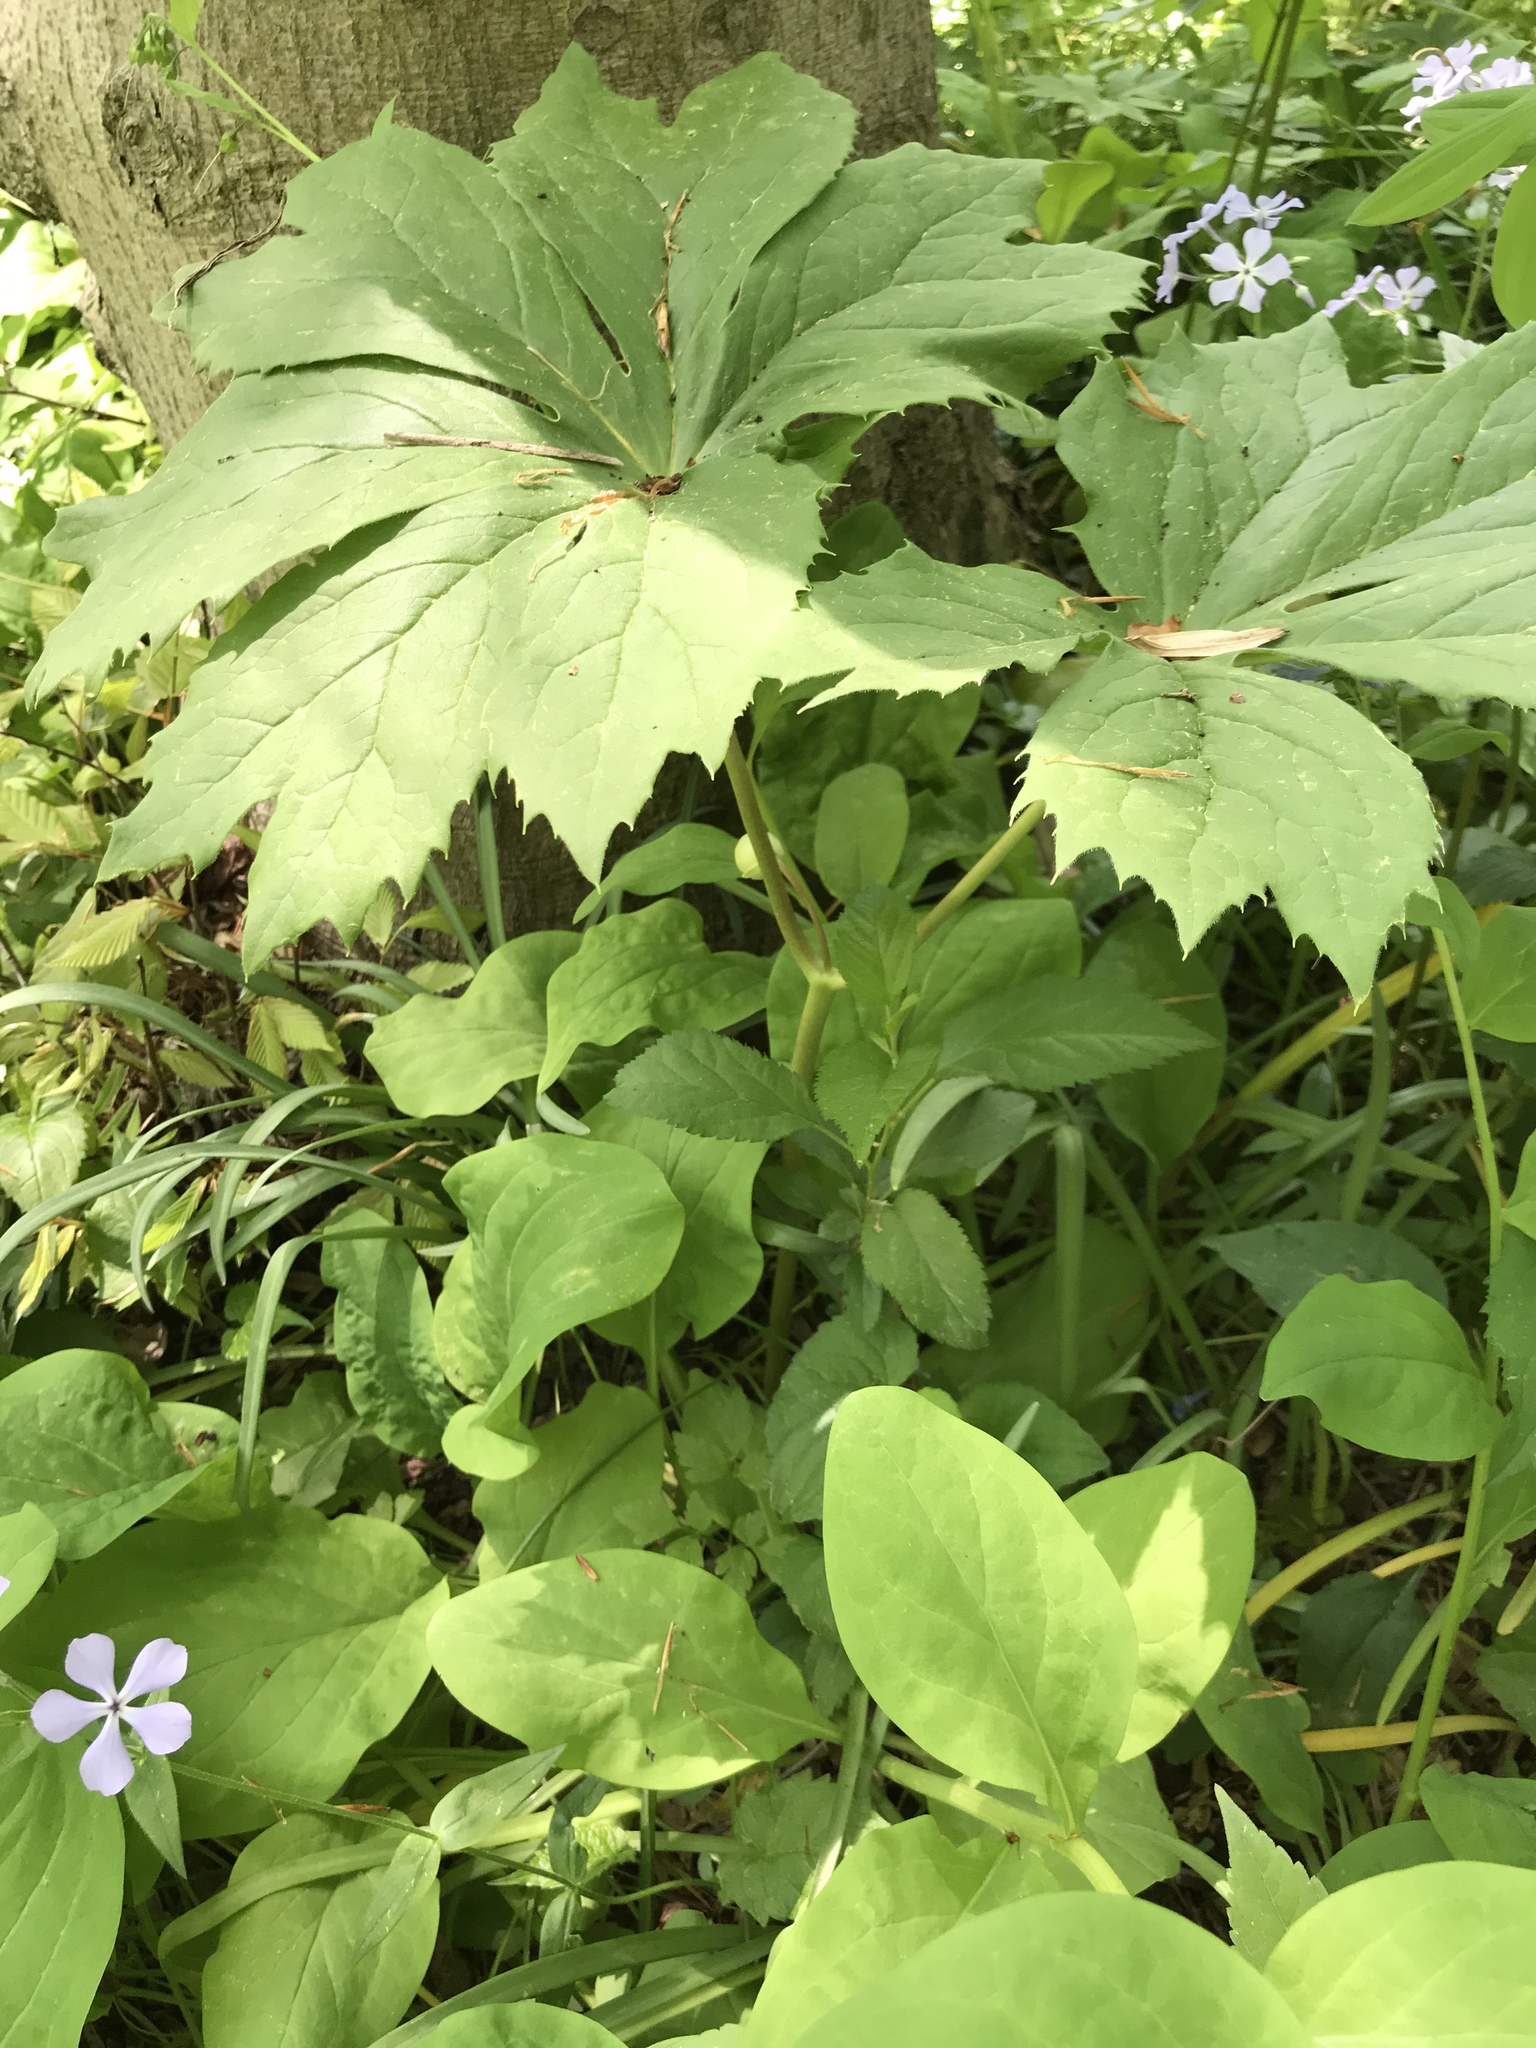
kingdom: Plantae
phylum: Tracheophyta
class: Magnoliopsida
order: Ranunculales
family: Berberidaceae
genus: Podophyllum
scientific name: Podophyllum peltatum
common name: Wild mandrake
